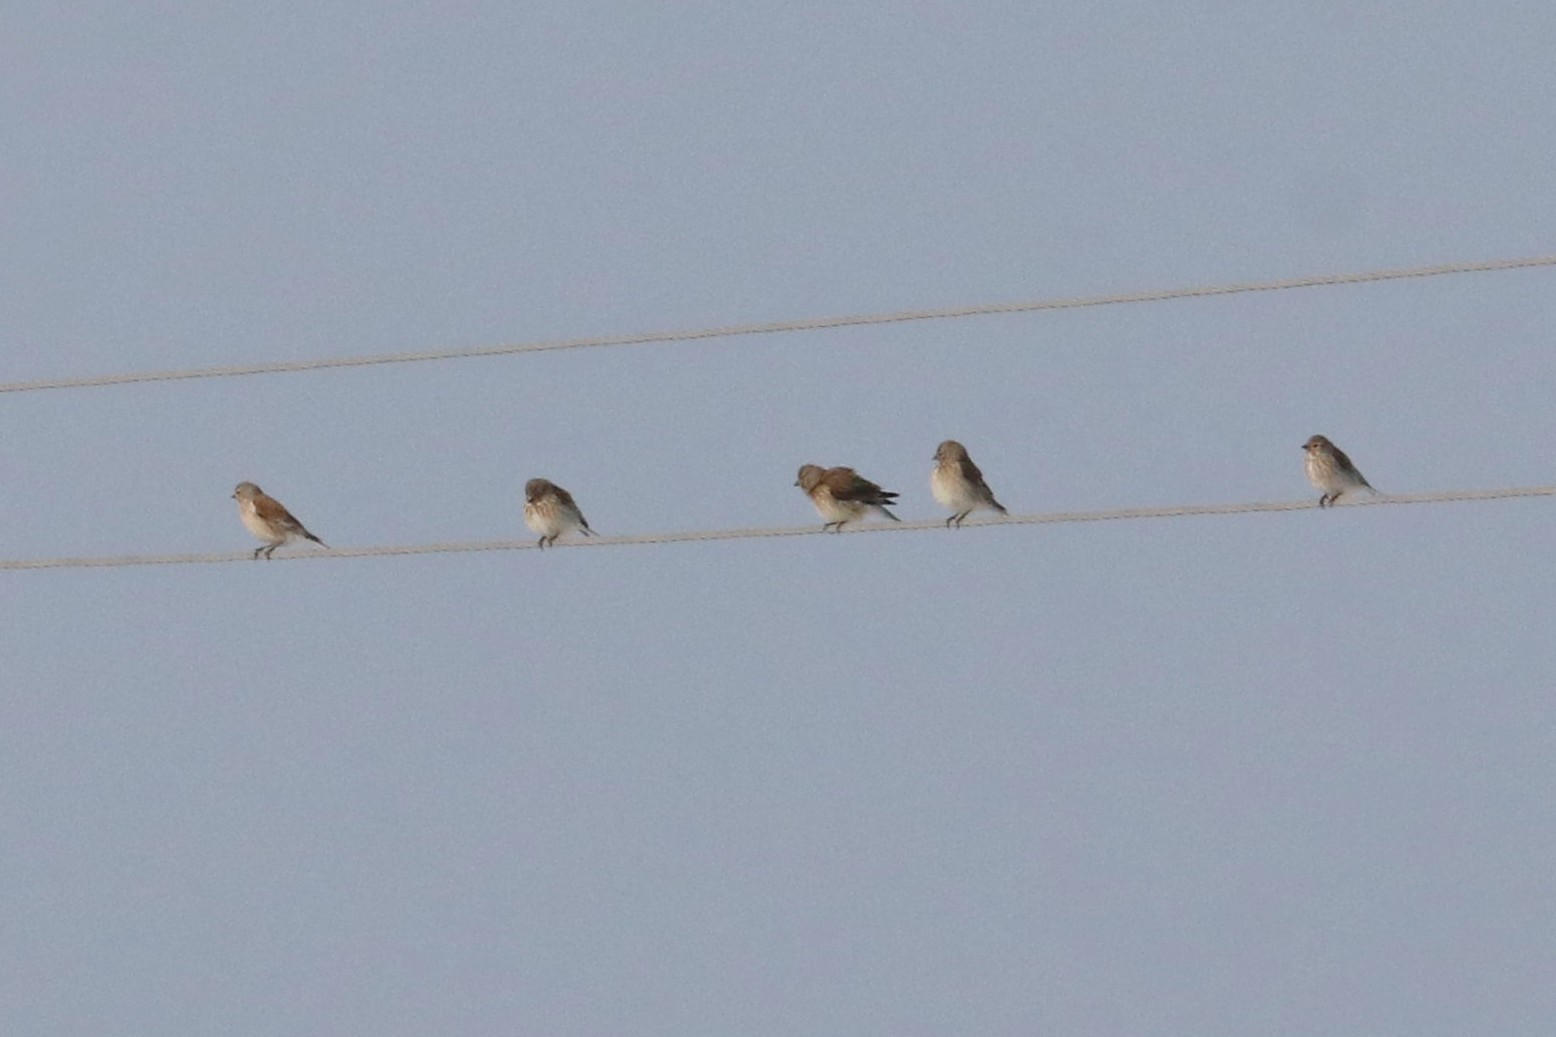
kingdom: Animalia
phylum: Chordata
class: Aves
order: Passeriformes
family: Fringillidae
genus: Linaria
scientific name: Linaria cannabina
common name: Common linnet
